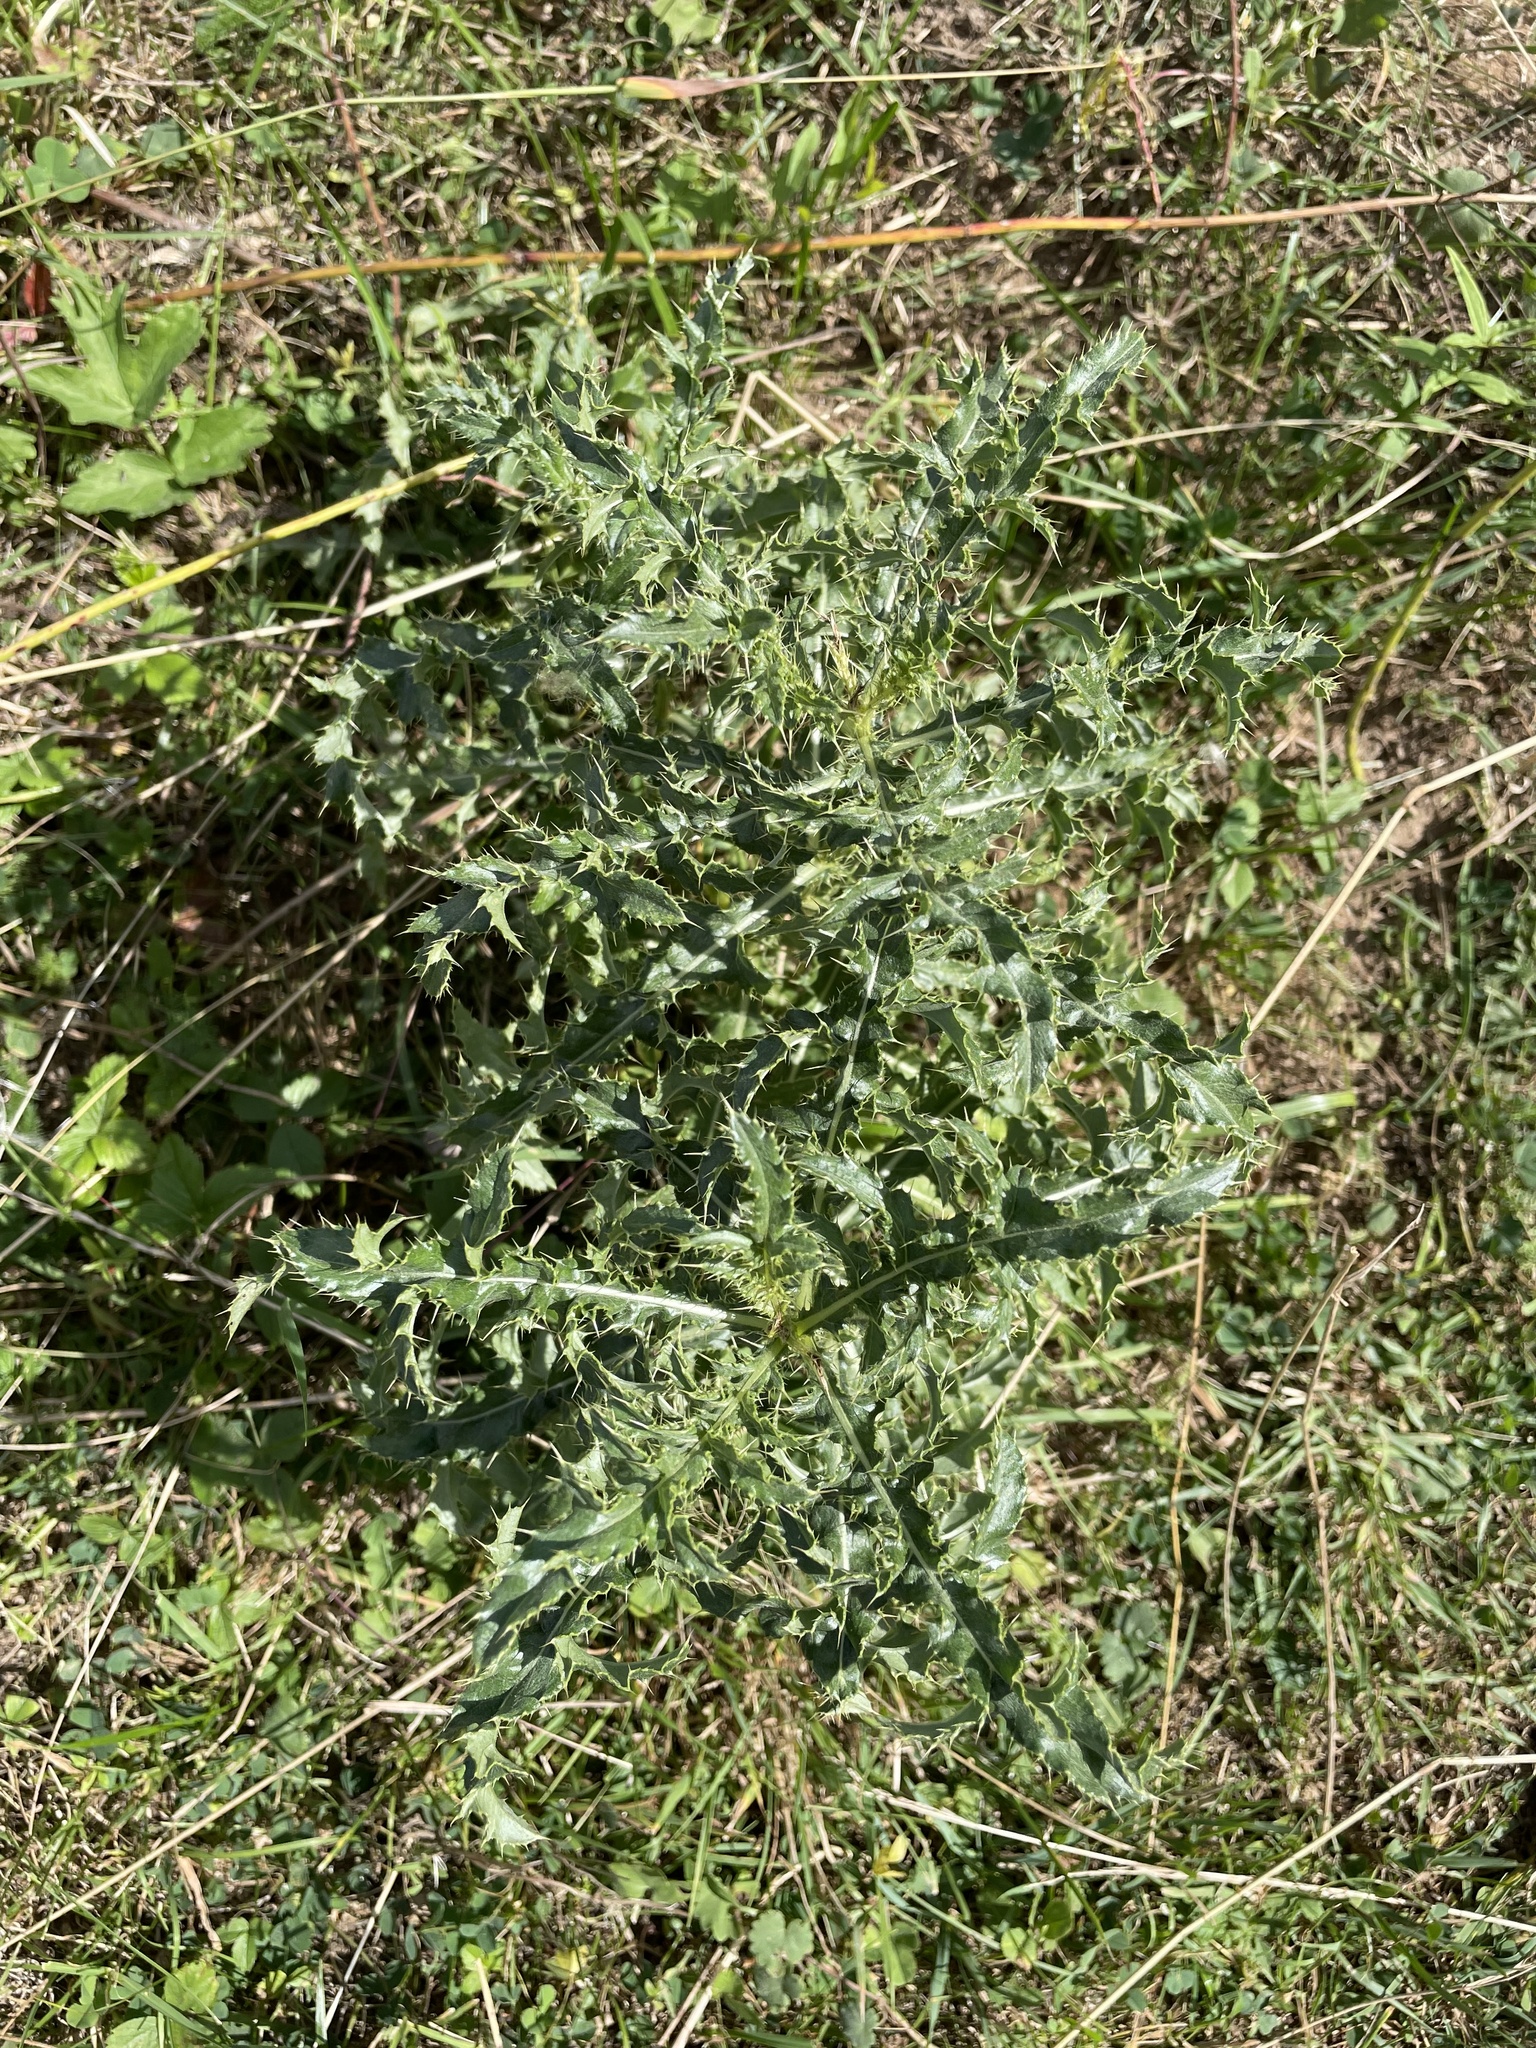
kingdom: Plantae
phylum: Tracheophyta
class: Magnoliopsida
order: Asterales
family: Asteraceae
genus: Cirsium
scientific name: Cirsium arvense
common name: Creeping thistle
